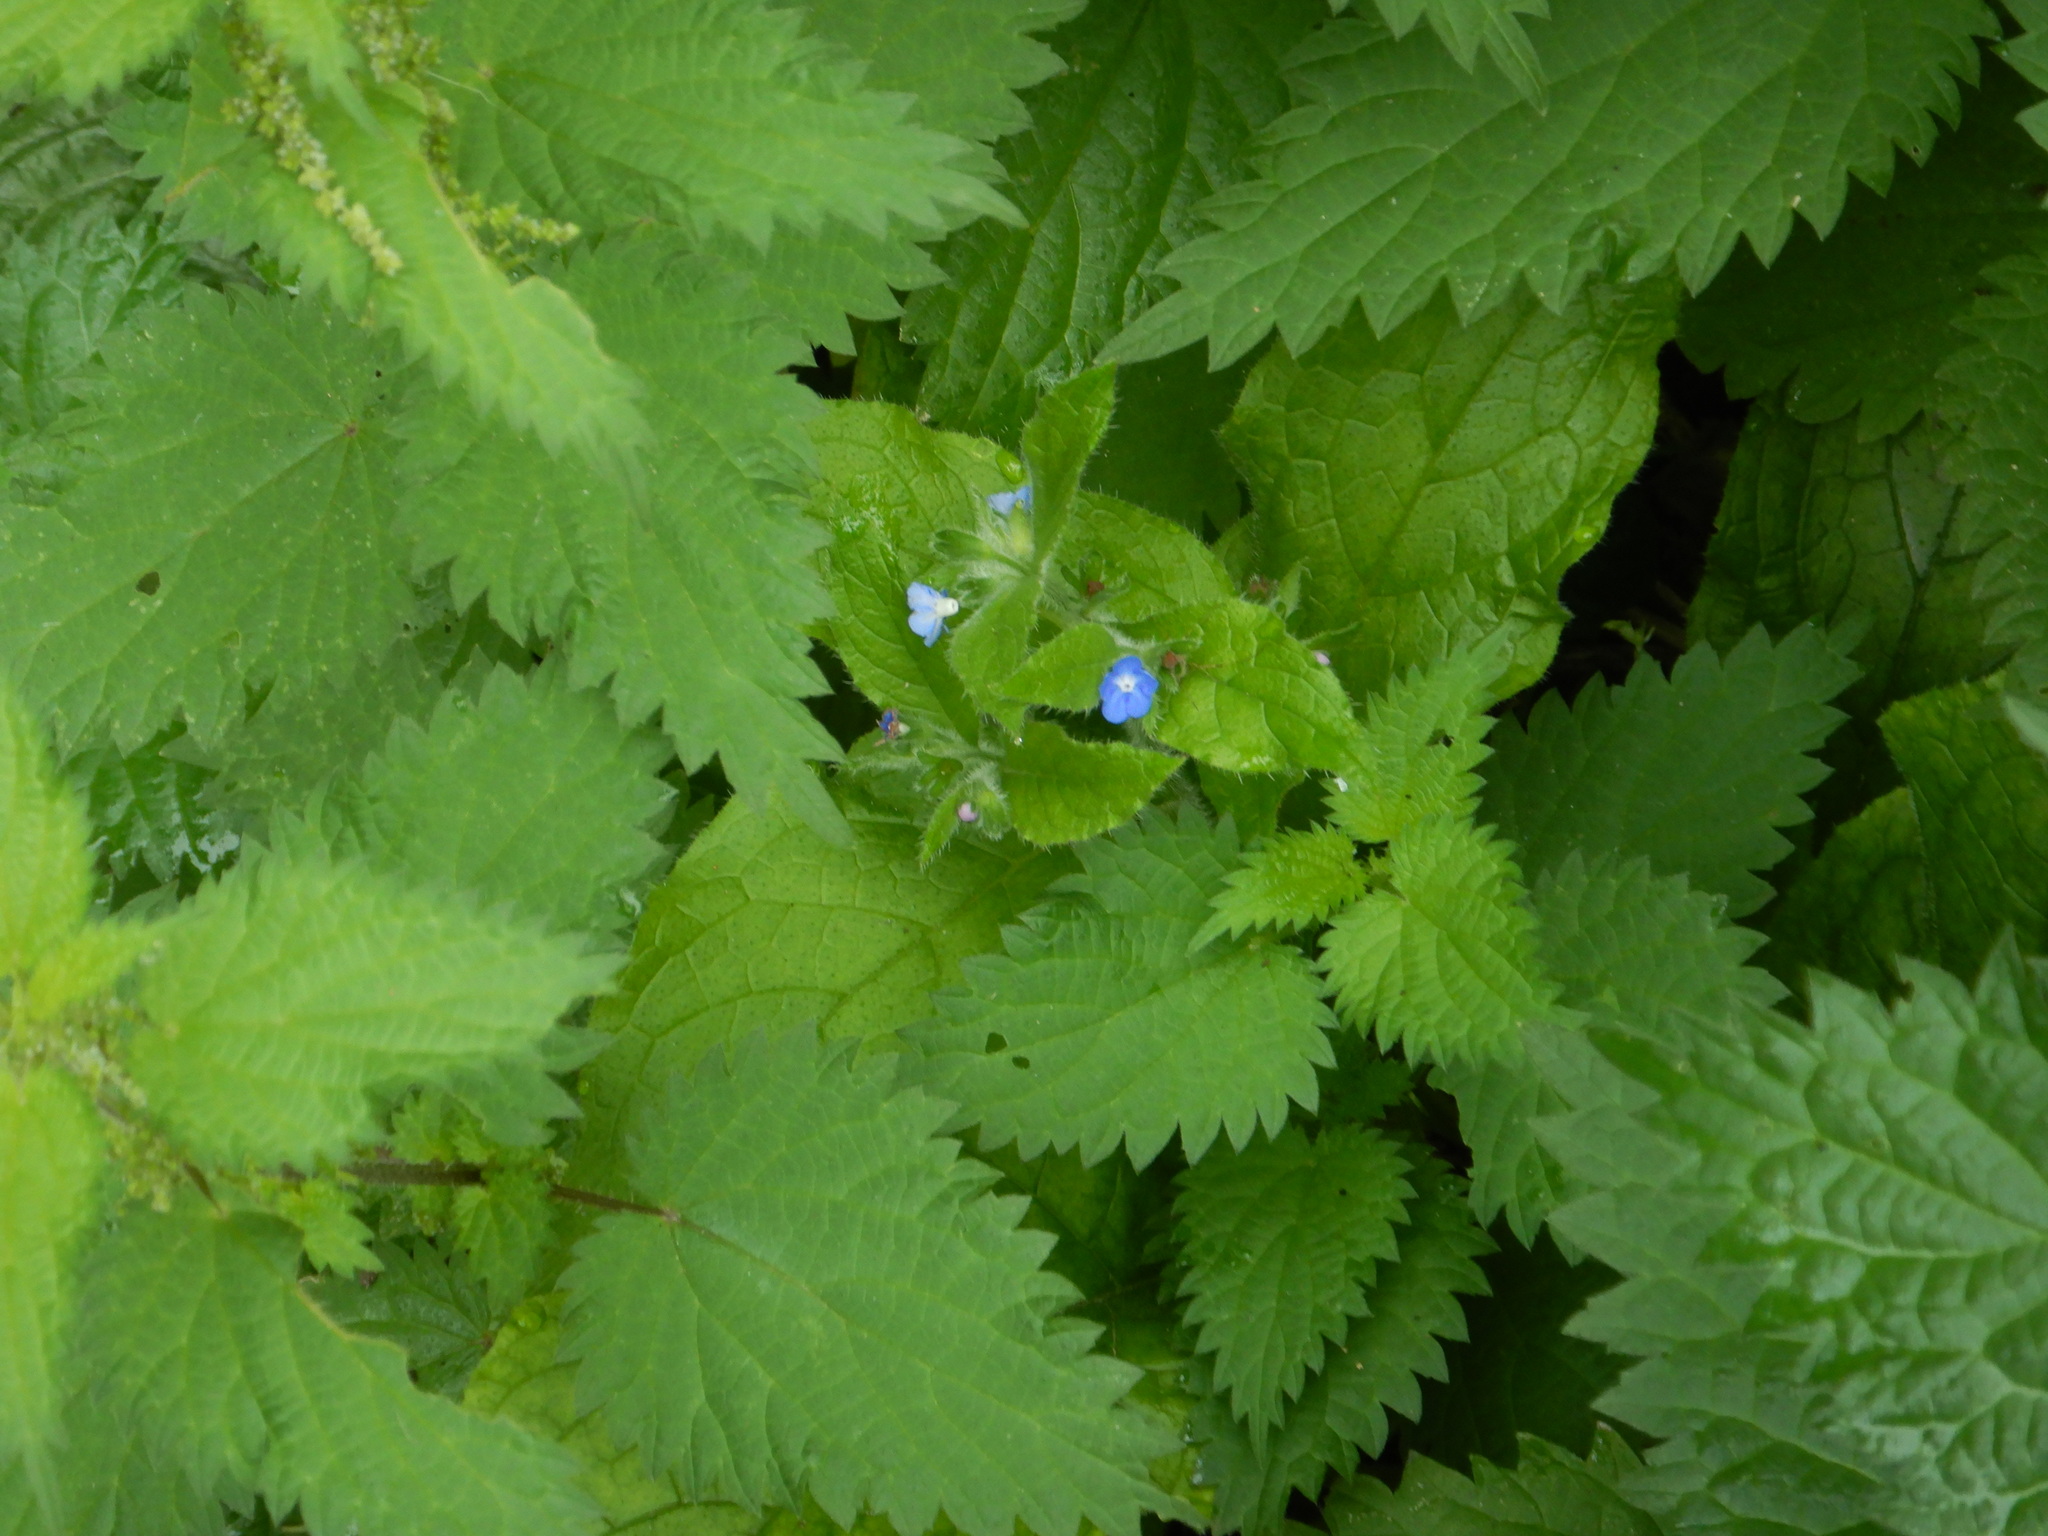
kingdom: Plantae
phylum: Tracheophyta
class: Magnoliopsida
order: Boraginales
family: Boraginaceae
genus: Pentaglottis
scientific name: Pentaglottis sempervirens
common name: Green alkanet
